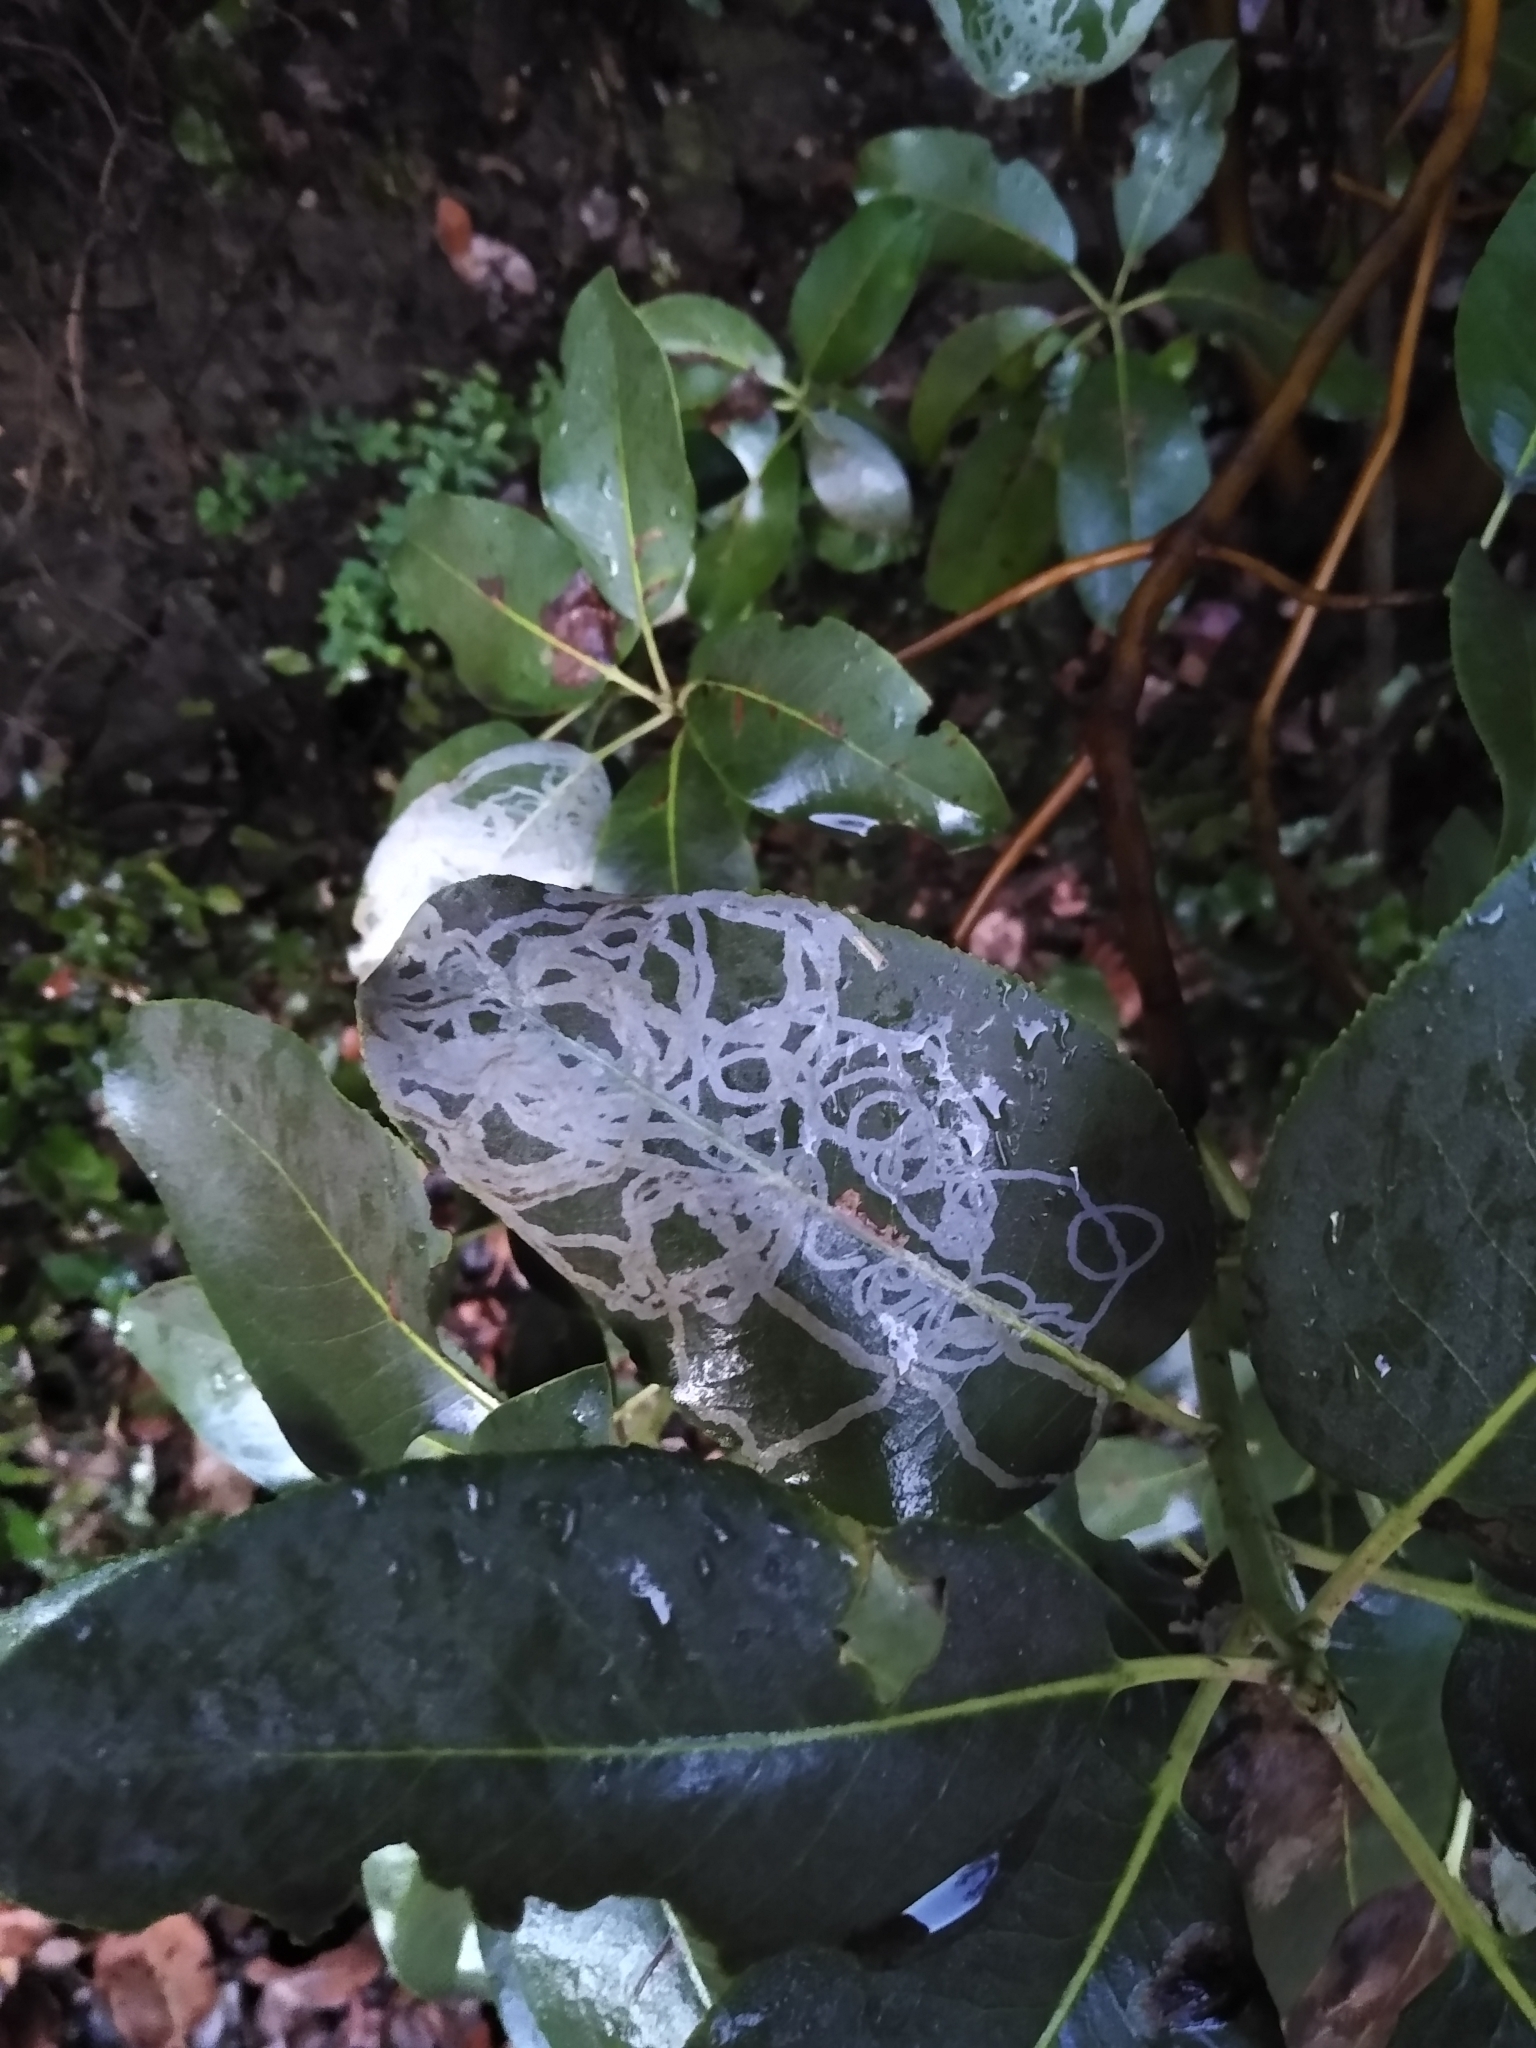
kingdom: Animalia
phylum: Arthropoda
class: Insecta
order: Lepidoptera
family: Gracillariidae
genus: Marmara
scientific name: Marmara arbutiella
